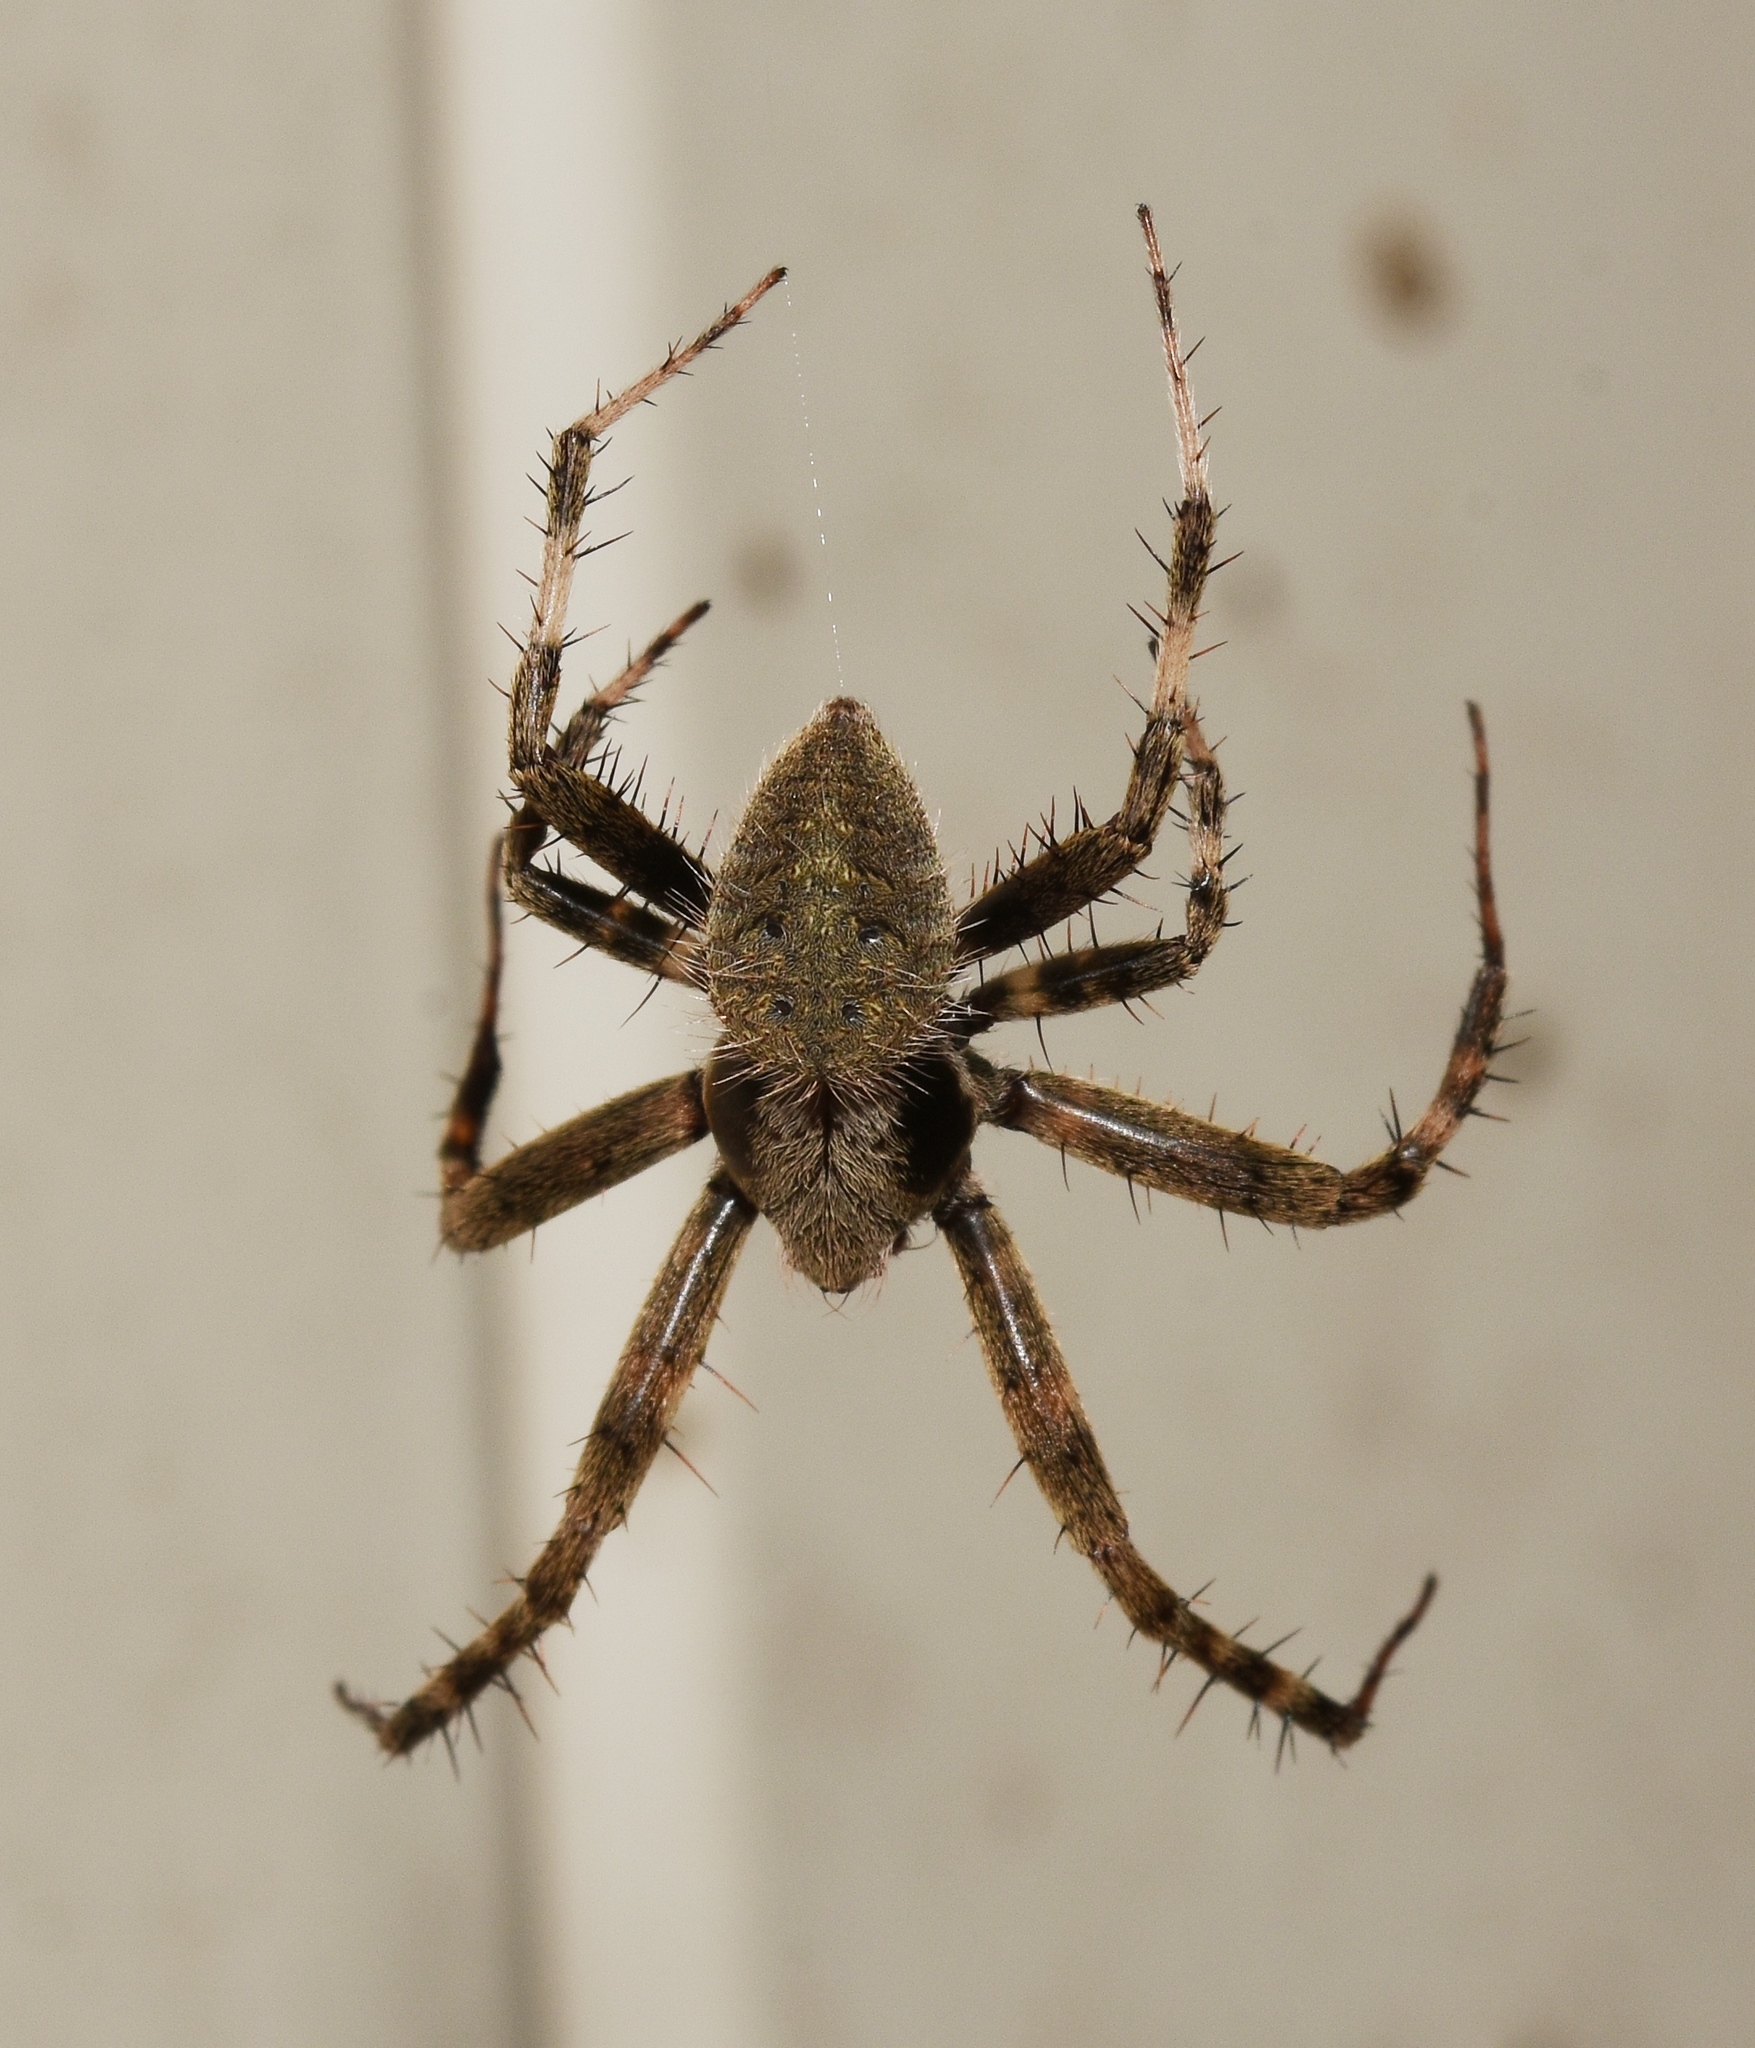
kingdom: Animalia
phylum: Arthropoda
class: Arachnida
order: Araneae
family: Araneidae
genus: Neoscona
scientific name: Neoscona crucifera
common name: Spotted orbweaver
